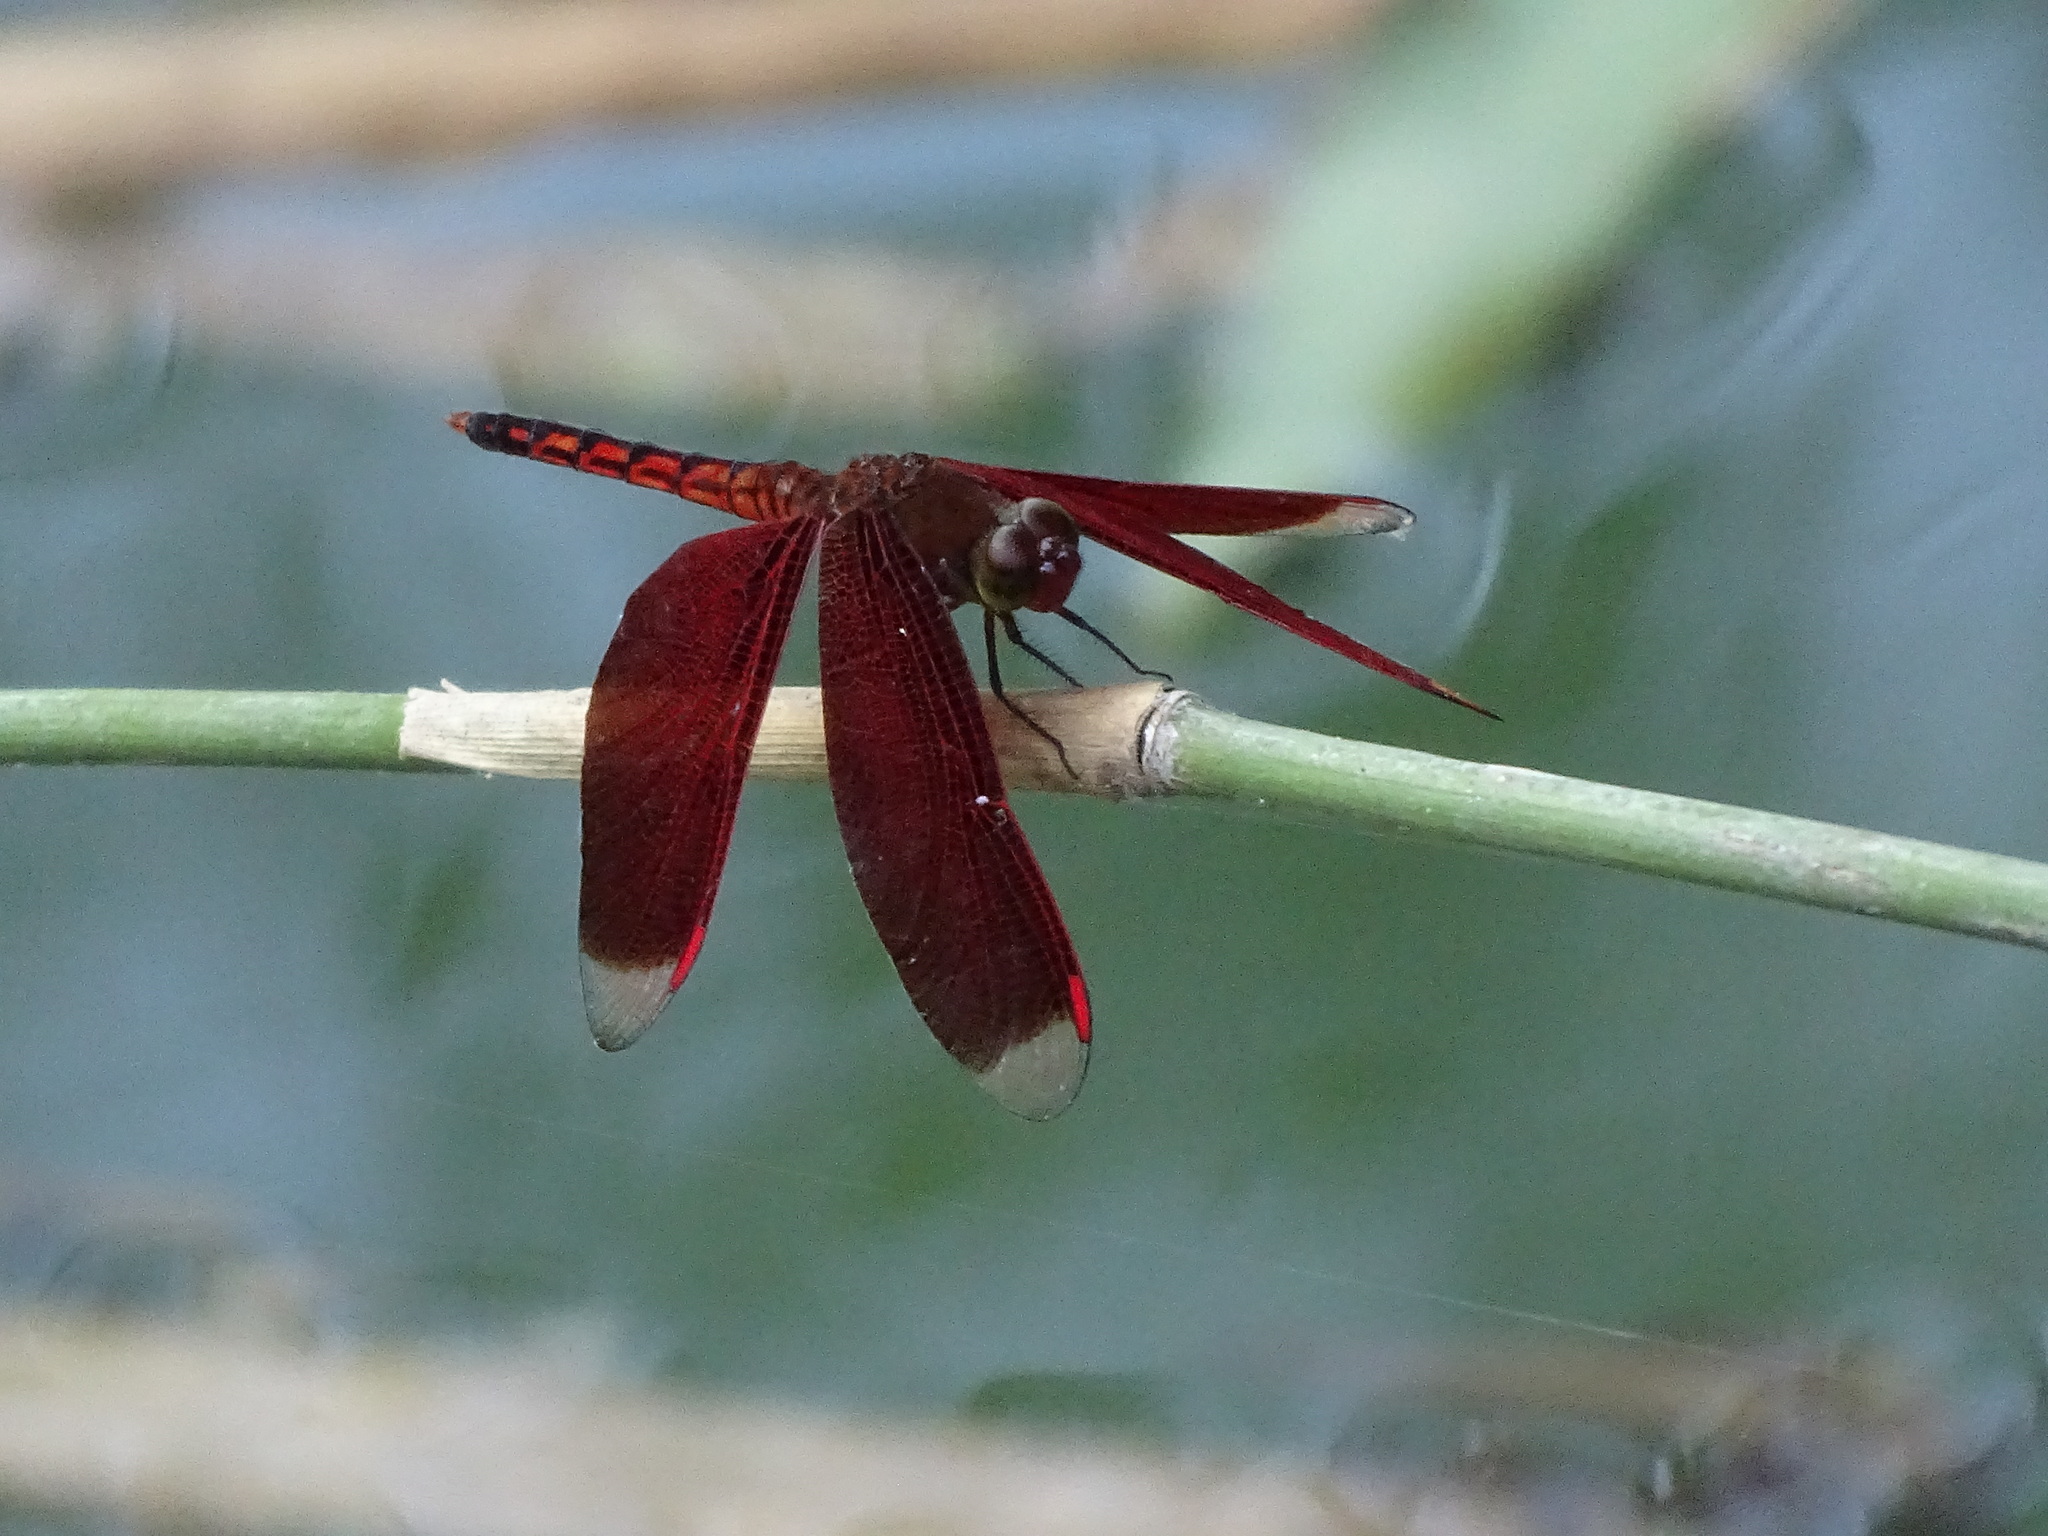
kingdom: Animalia
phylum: Arthropoda
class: Insecta
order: Odonata
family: Libellulidae
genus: Neurothemis
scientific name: Neurothemis taiwanensis
